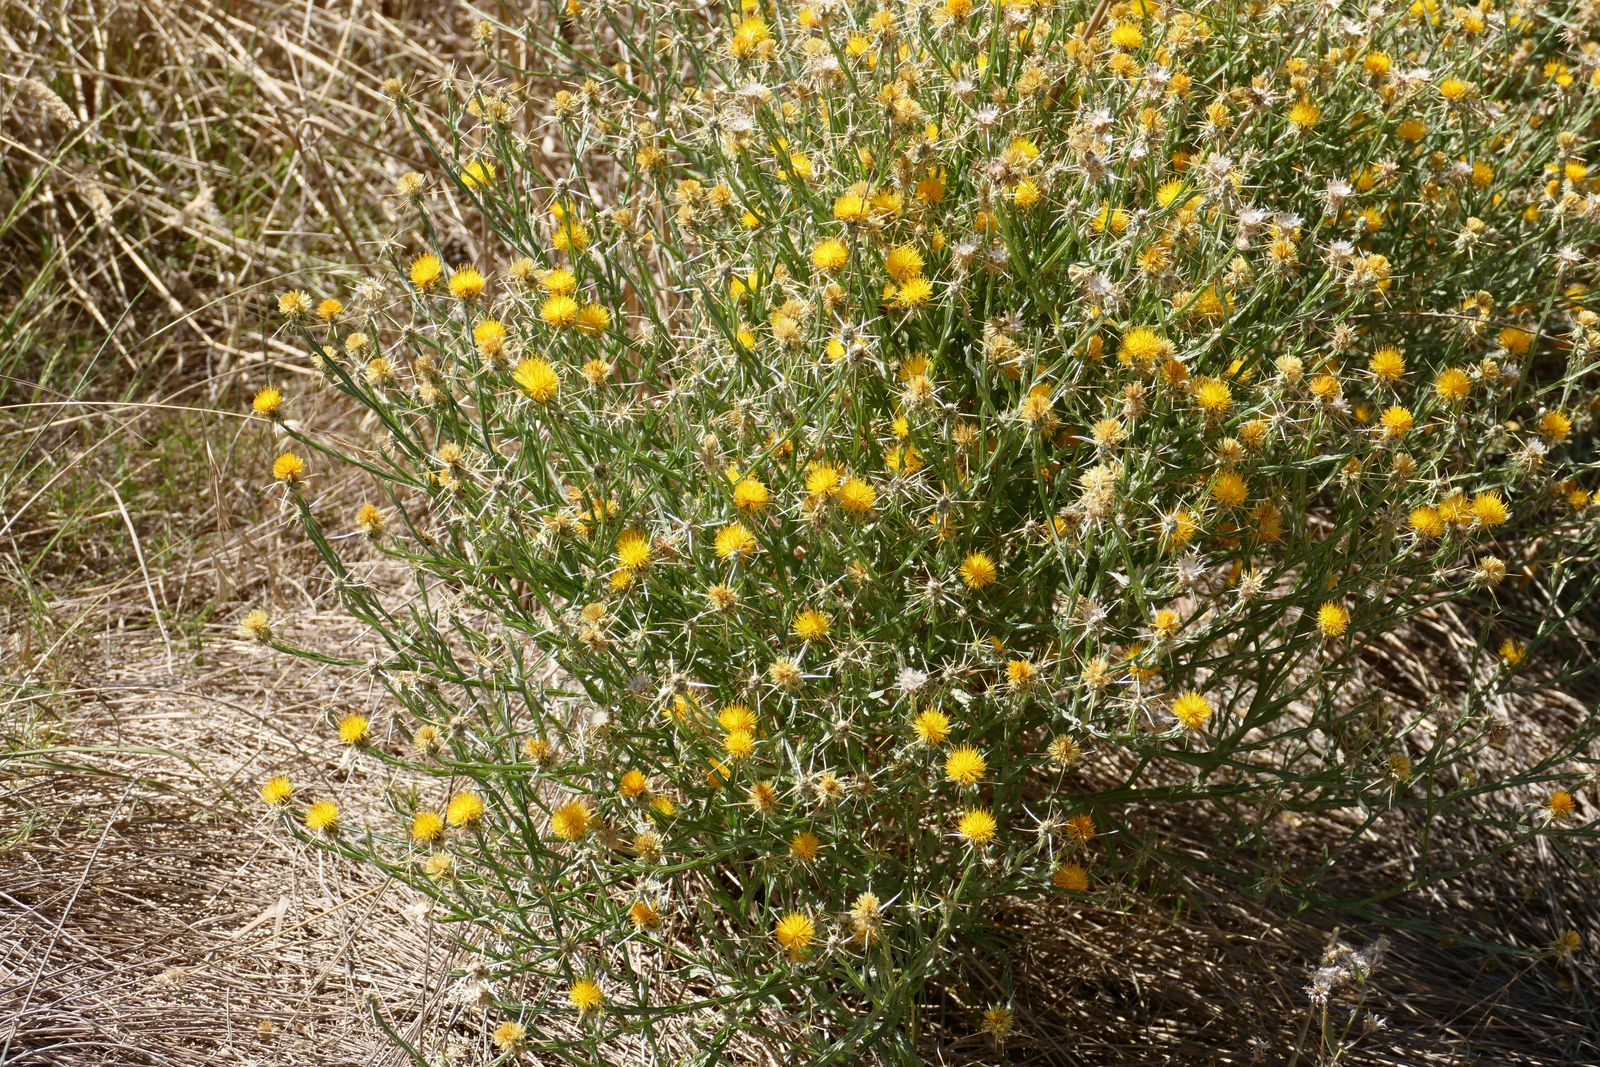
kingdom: Plantae
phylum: Tracheophyta
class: Magnoliopsida
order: Asterales
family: Asteraceae
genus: Centaurea
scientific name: Centaurea solstitialis
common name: Yellow star-thistle
